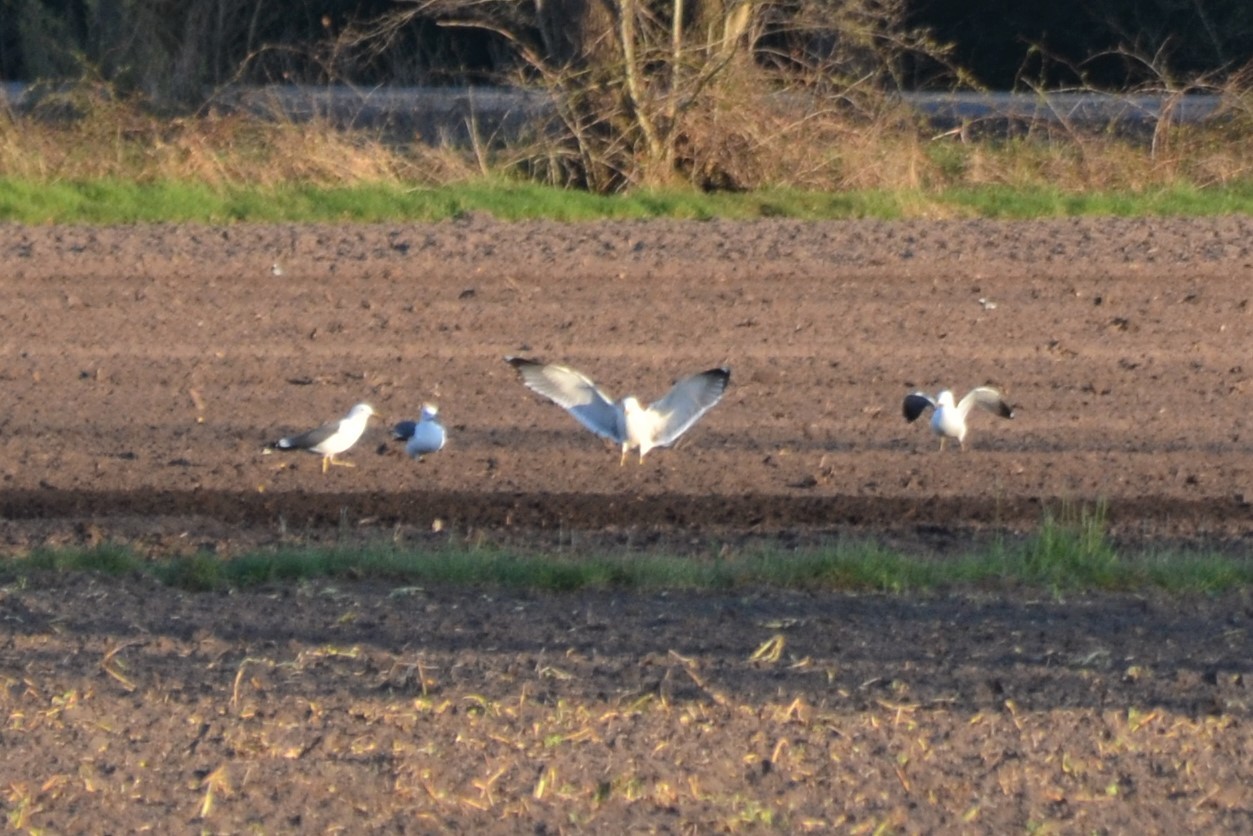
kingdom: Animalia
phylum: Chordata
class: Aves
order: Charadriiformes
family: Laridae
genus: Larus
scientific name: Larus fuscus
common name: Lesser black-backed gull
